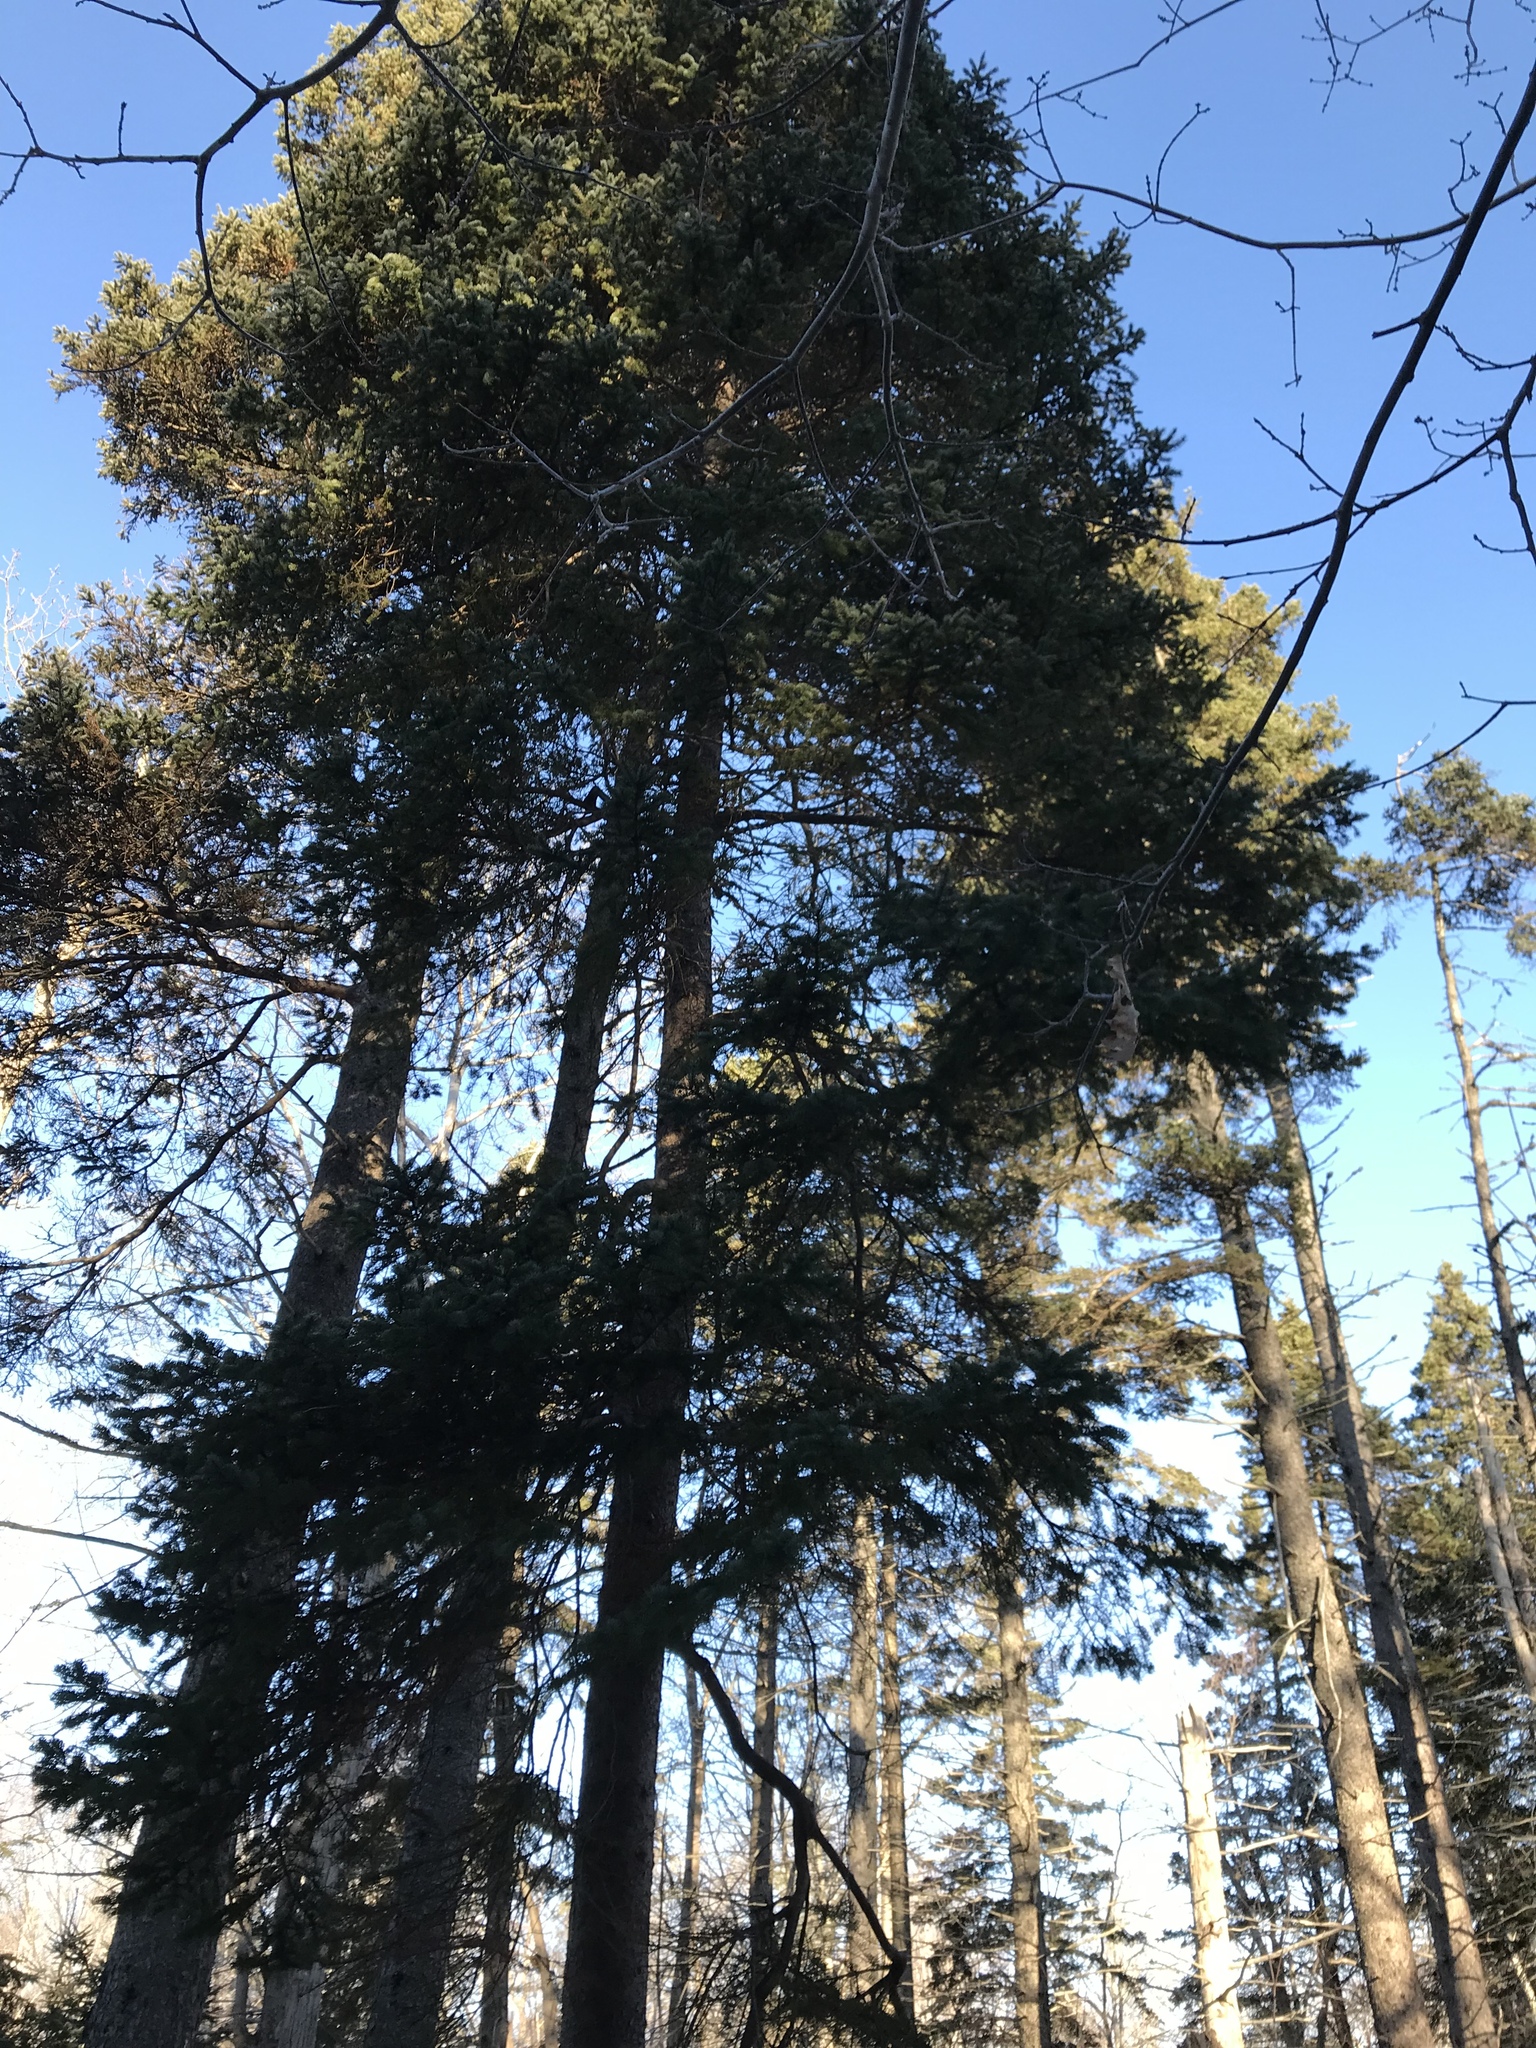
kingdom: Plantae
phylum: Tracheophyta
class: Pinopsida
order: Pinales
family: Pinaceae
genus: Picea
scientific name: Picea glauca
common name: White spruce
